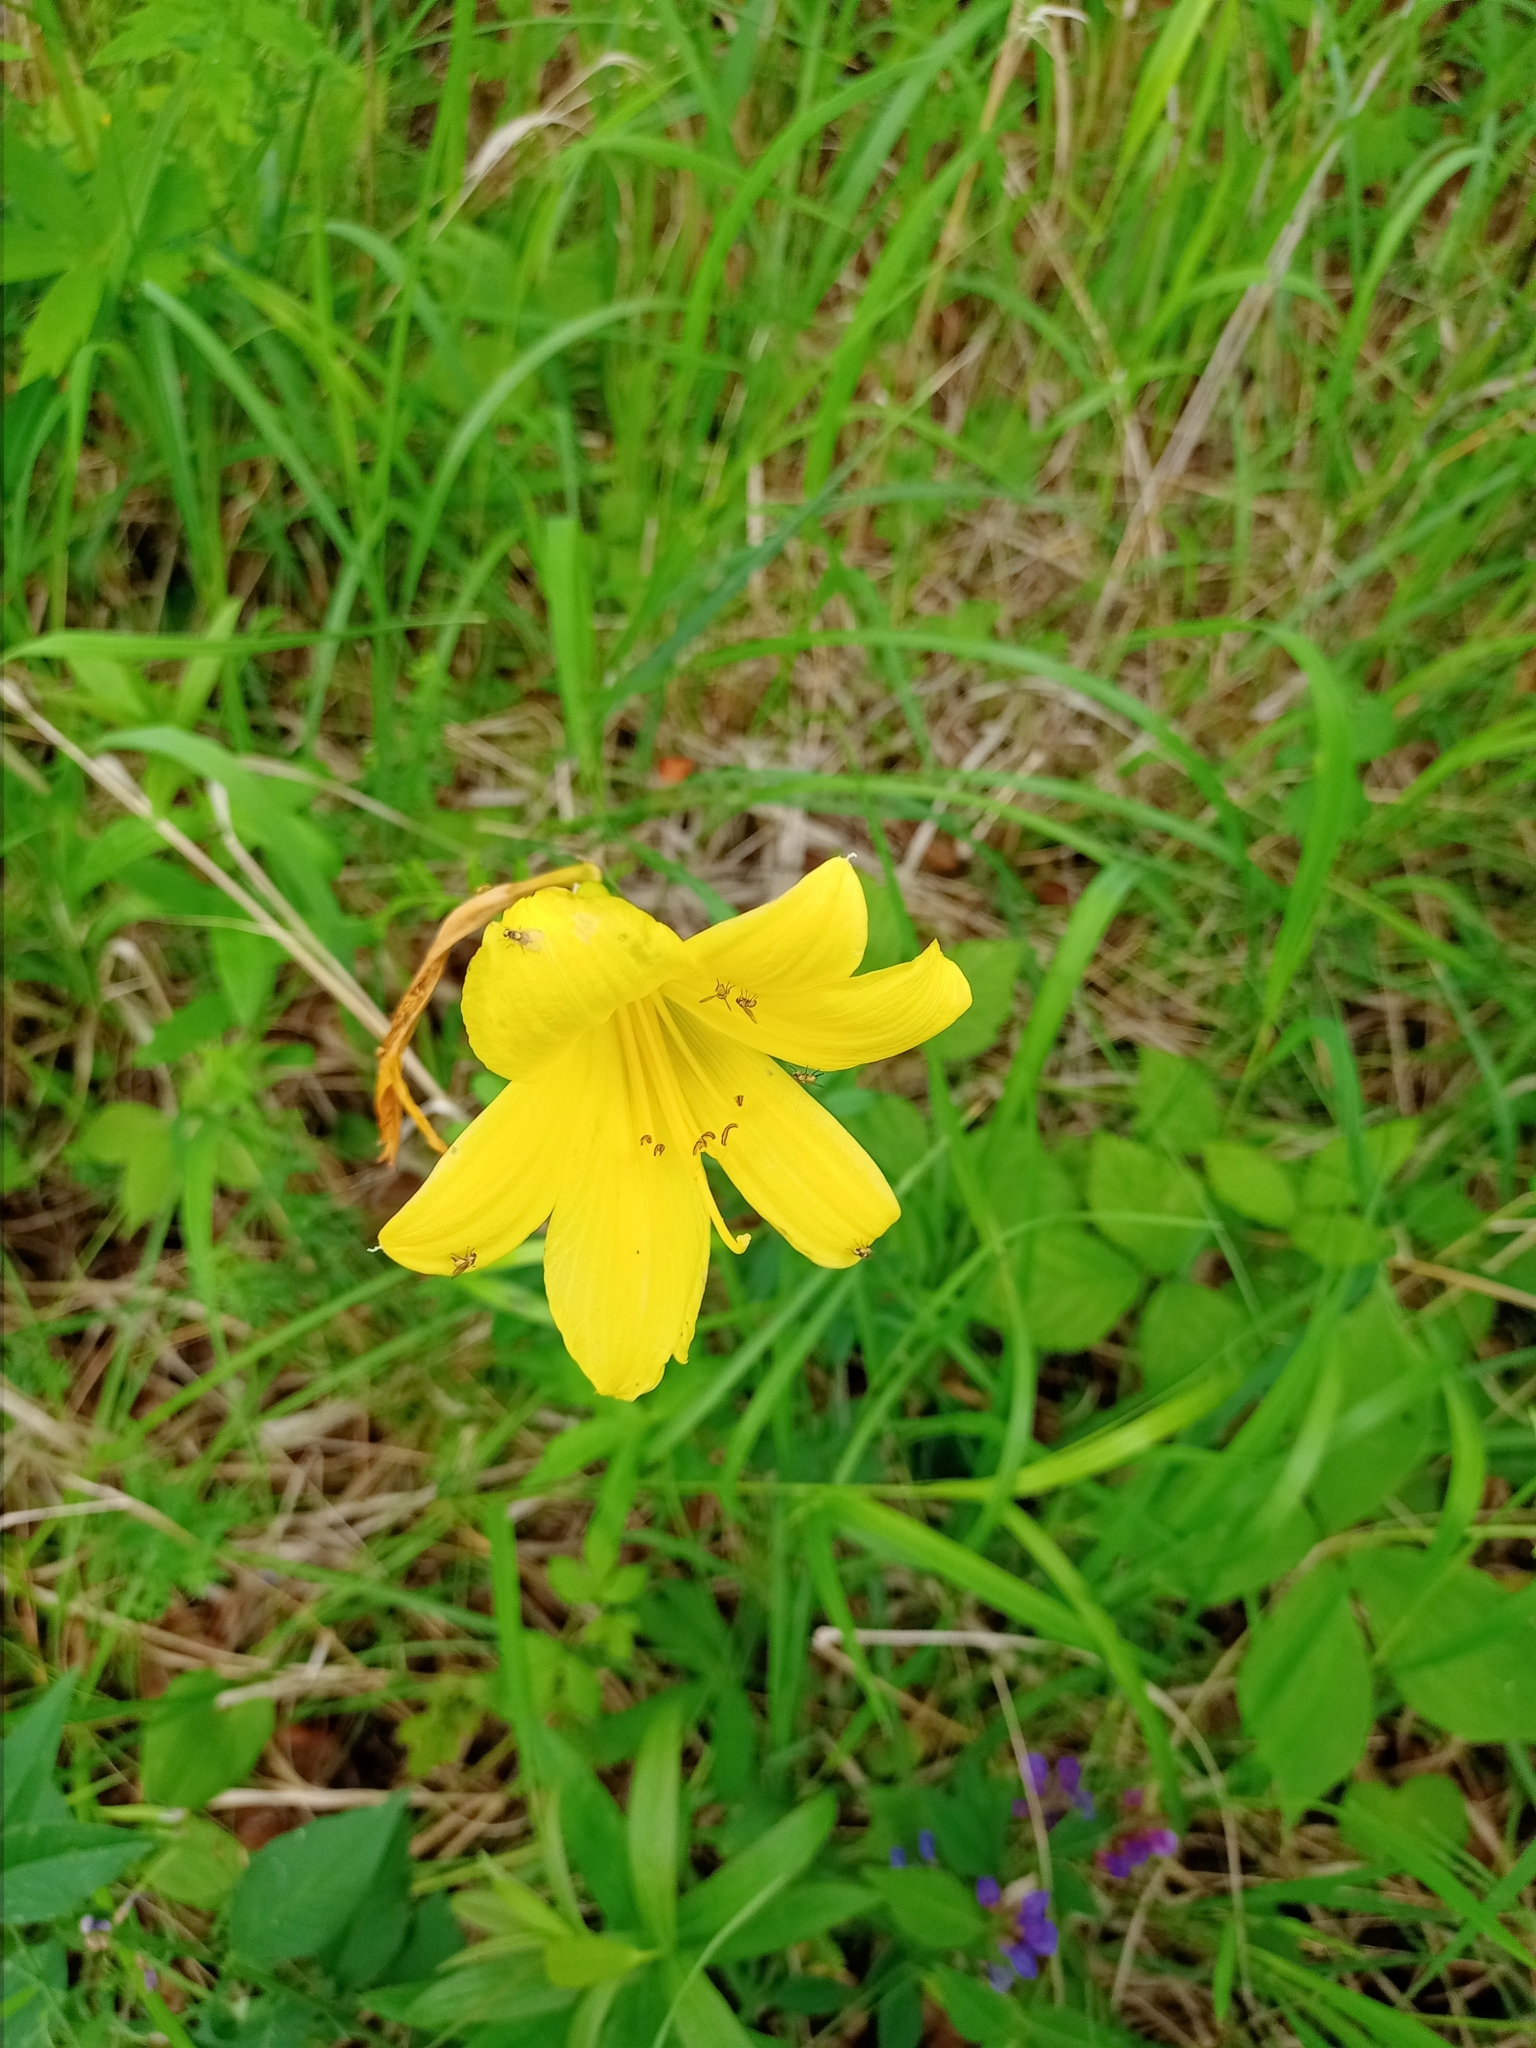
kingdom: Plantae
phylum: Tracheophyta
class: Liliopsida
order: Asparagales
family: Asphodelaceae
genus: Hemerocallis
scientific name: Hemerocallis minor
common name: Small daylily
